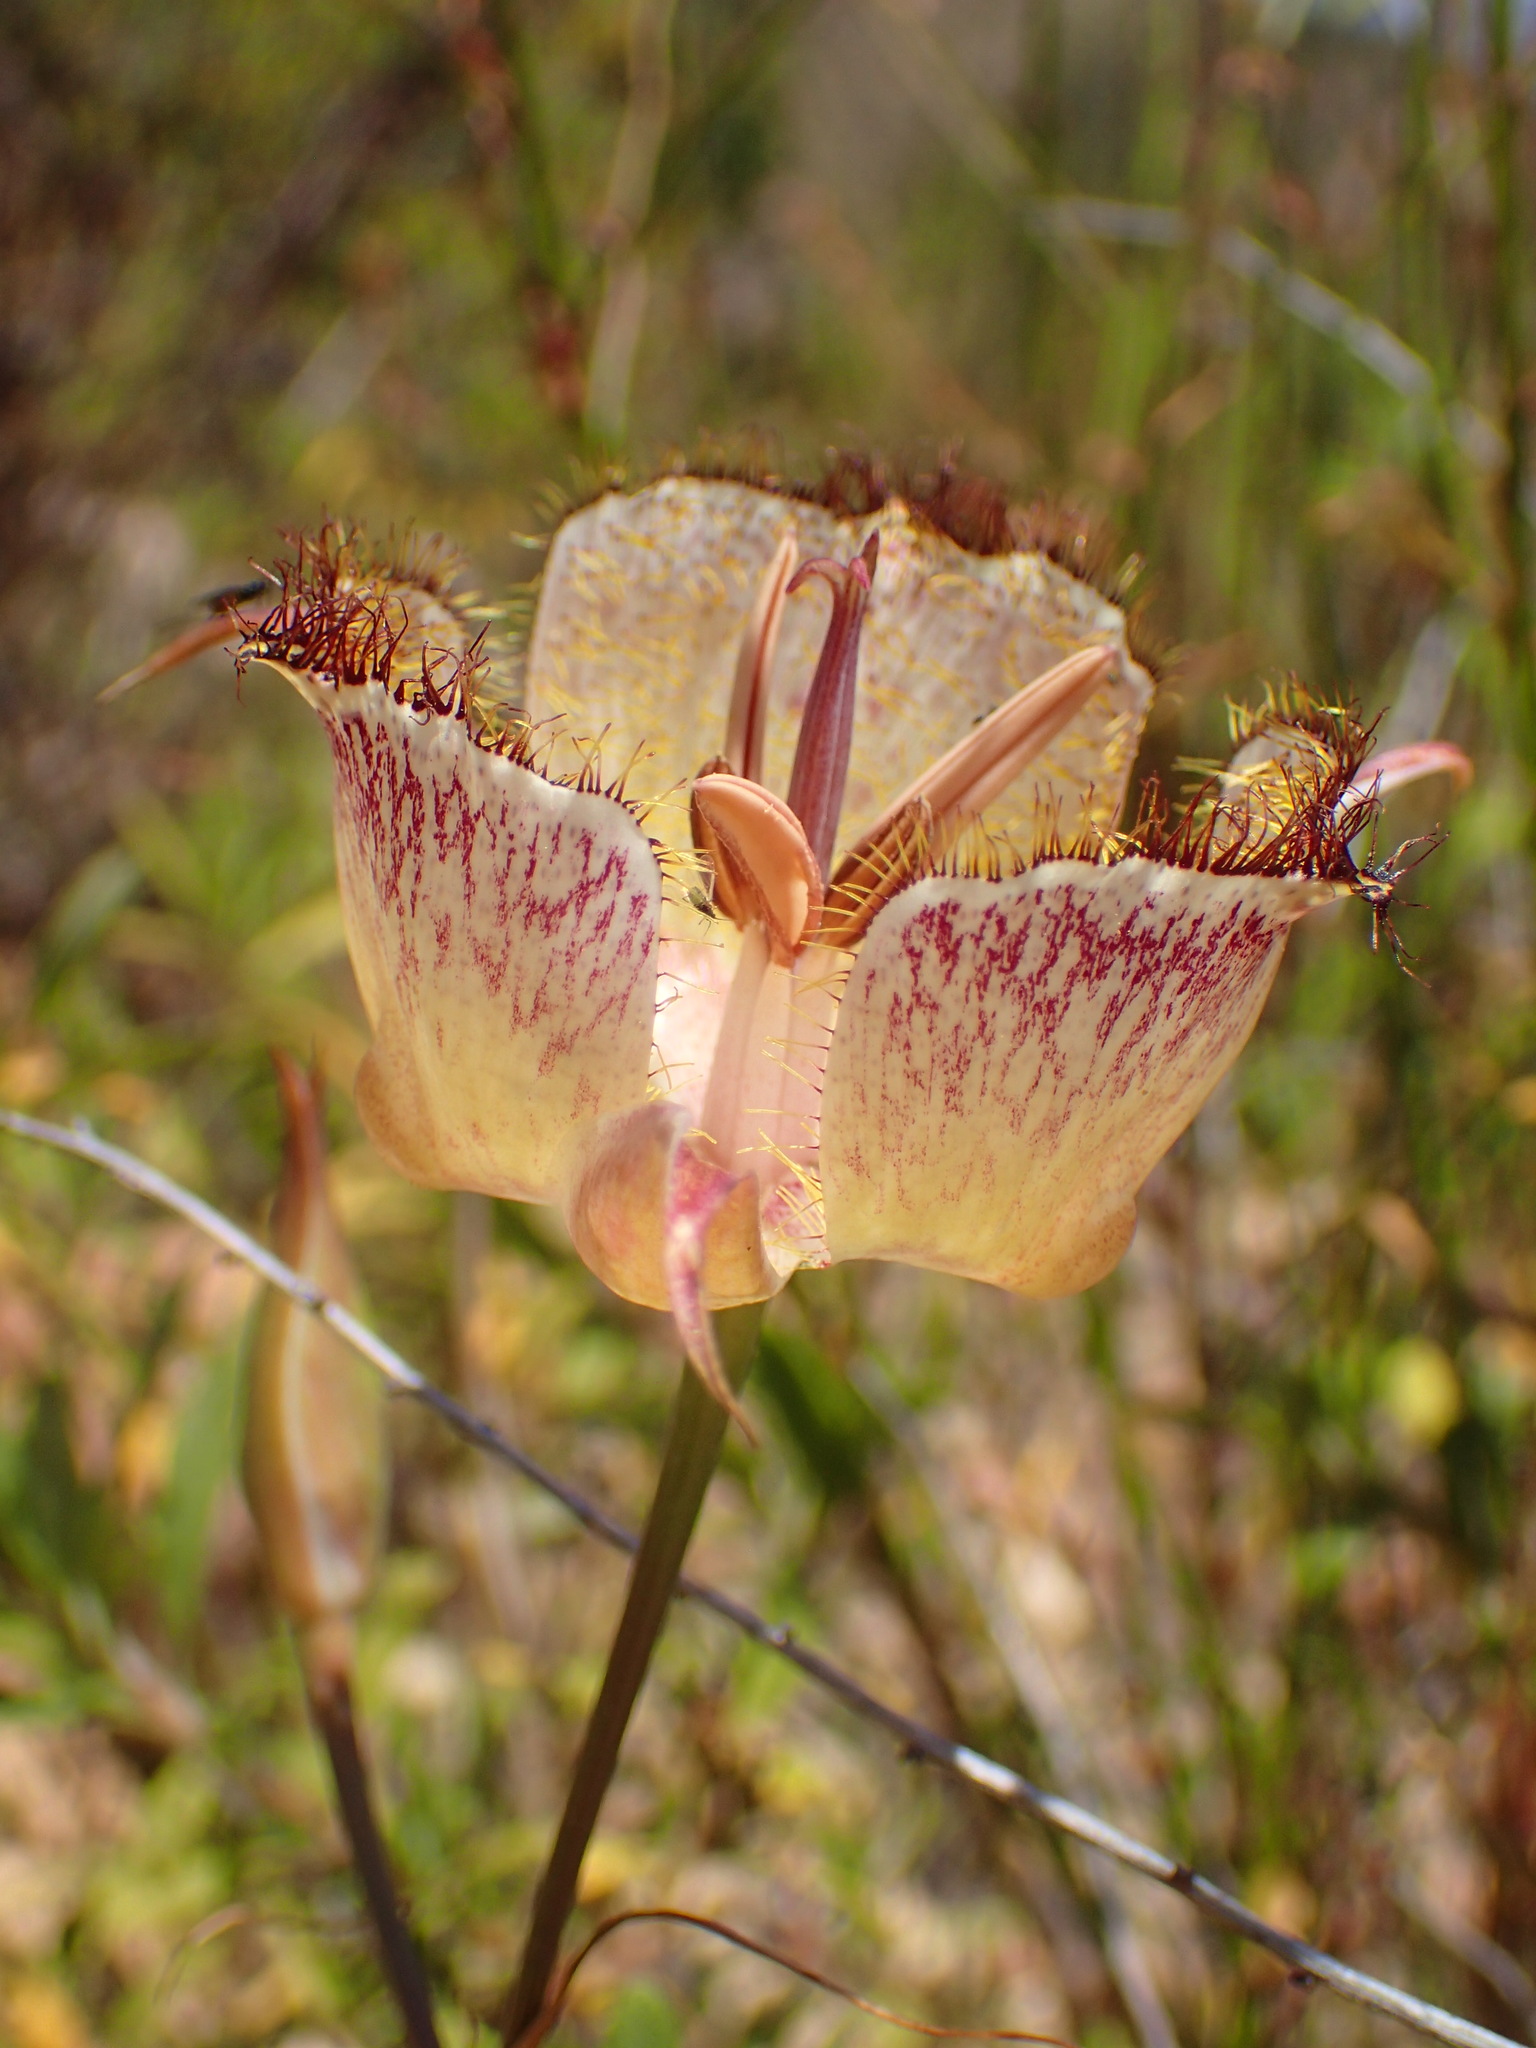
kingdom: Plantae
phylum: Tracheophyta
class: Liliopsida
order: Liliales
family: Liliaceae
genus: Calochortus
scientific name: Calochortus fimbriatus
